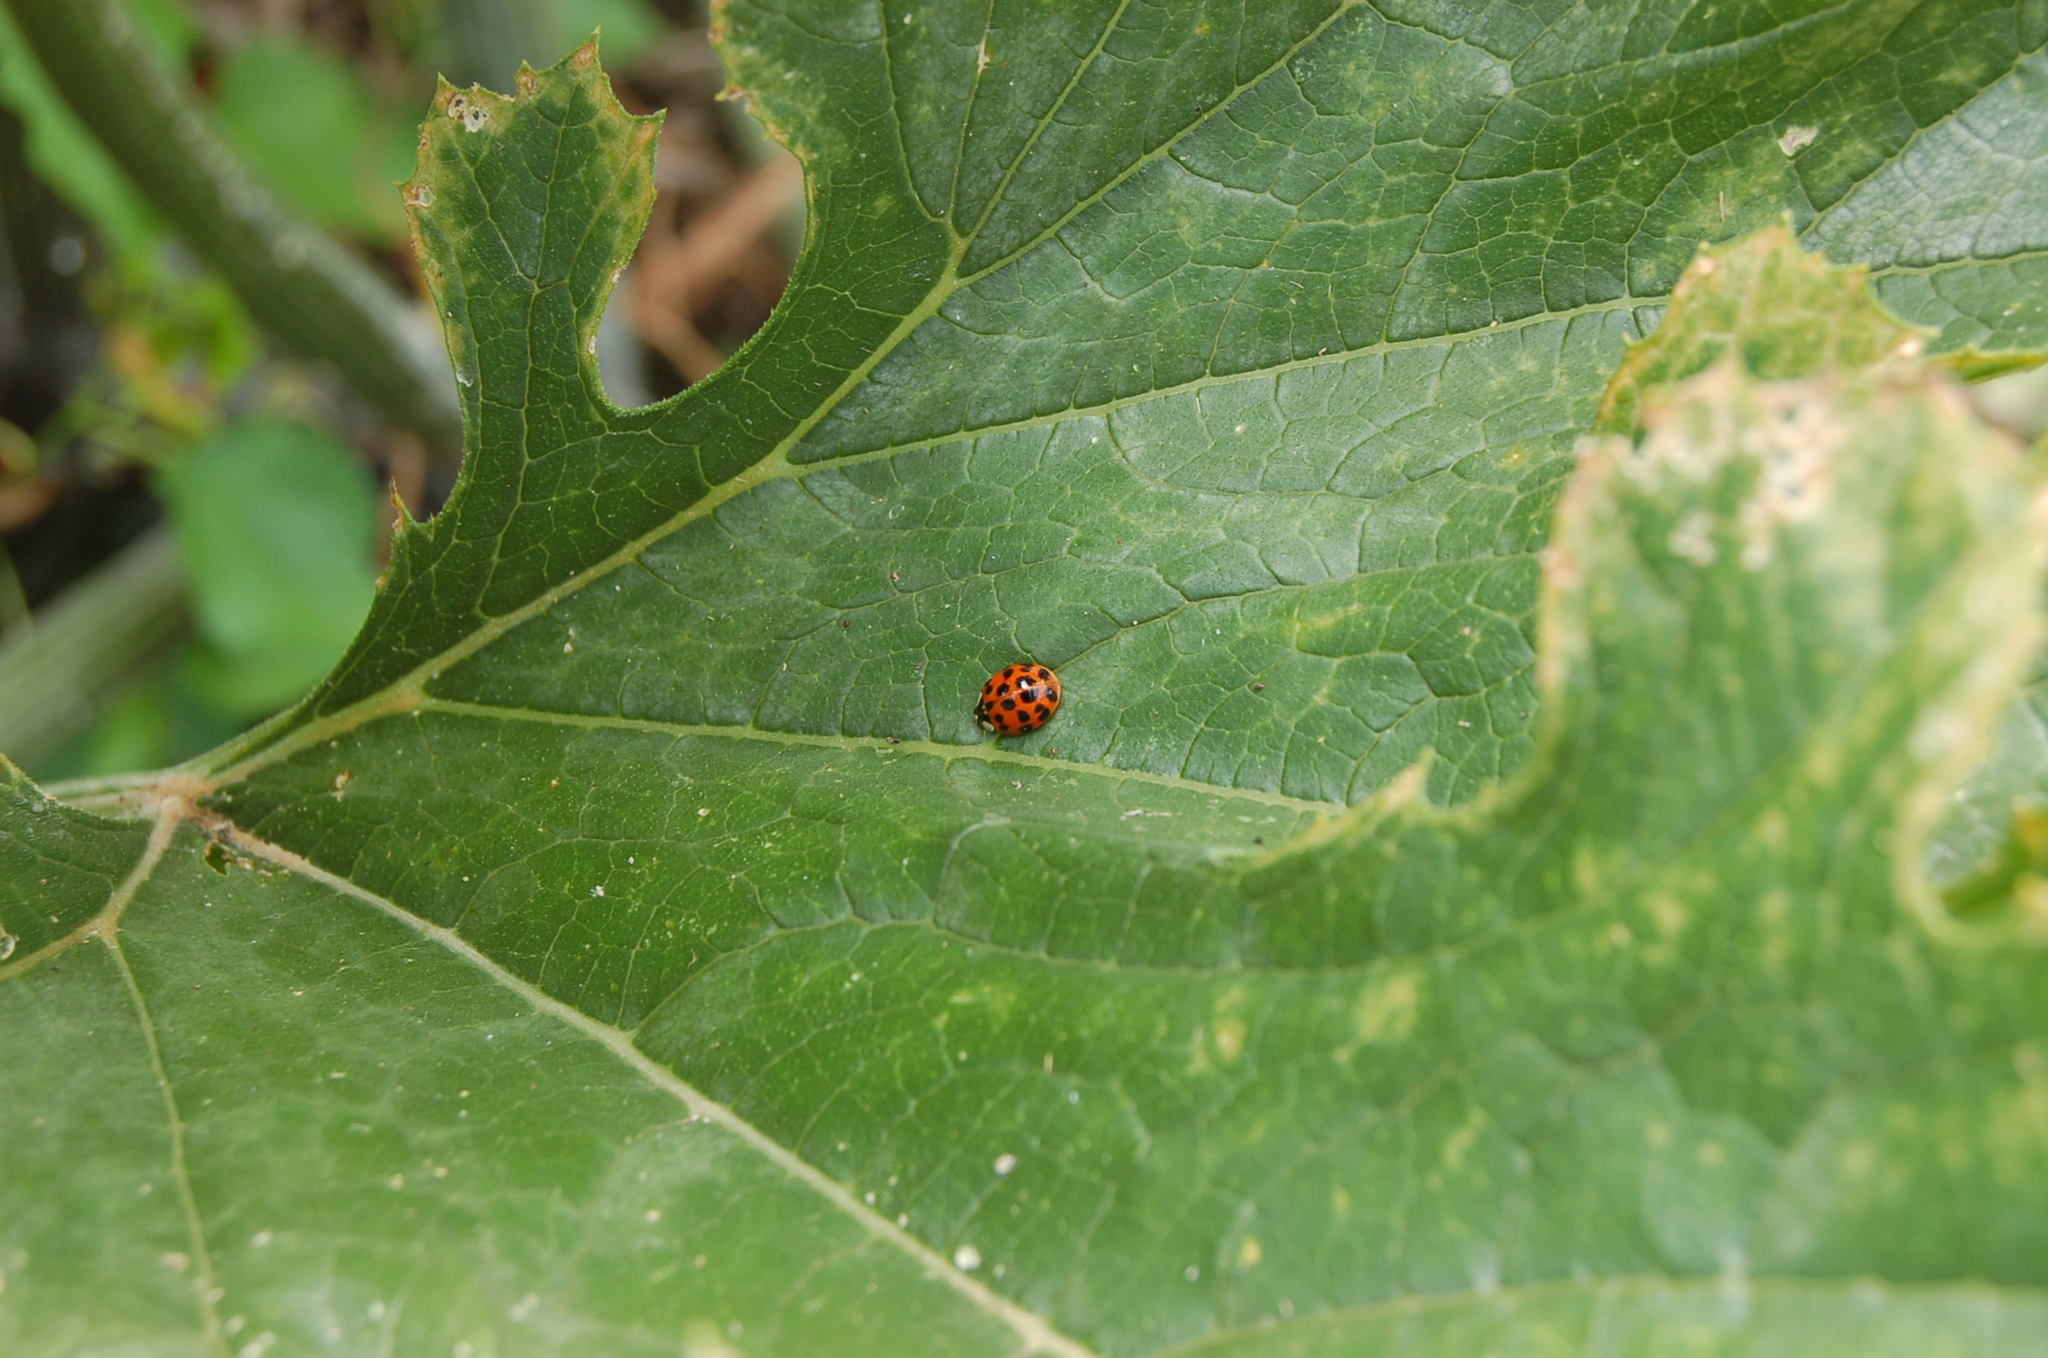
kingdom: Animalia
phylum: Arthropoda
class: Insecta
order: Coleoptera
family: Coccinellidae
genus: Harmonia
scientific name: Harmonia axyridis
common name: Harlequin ladybird
